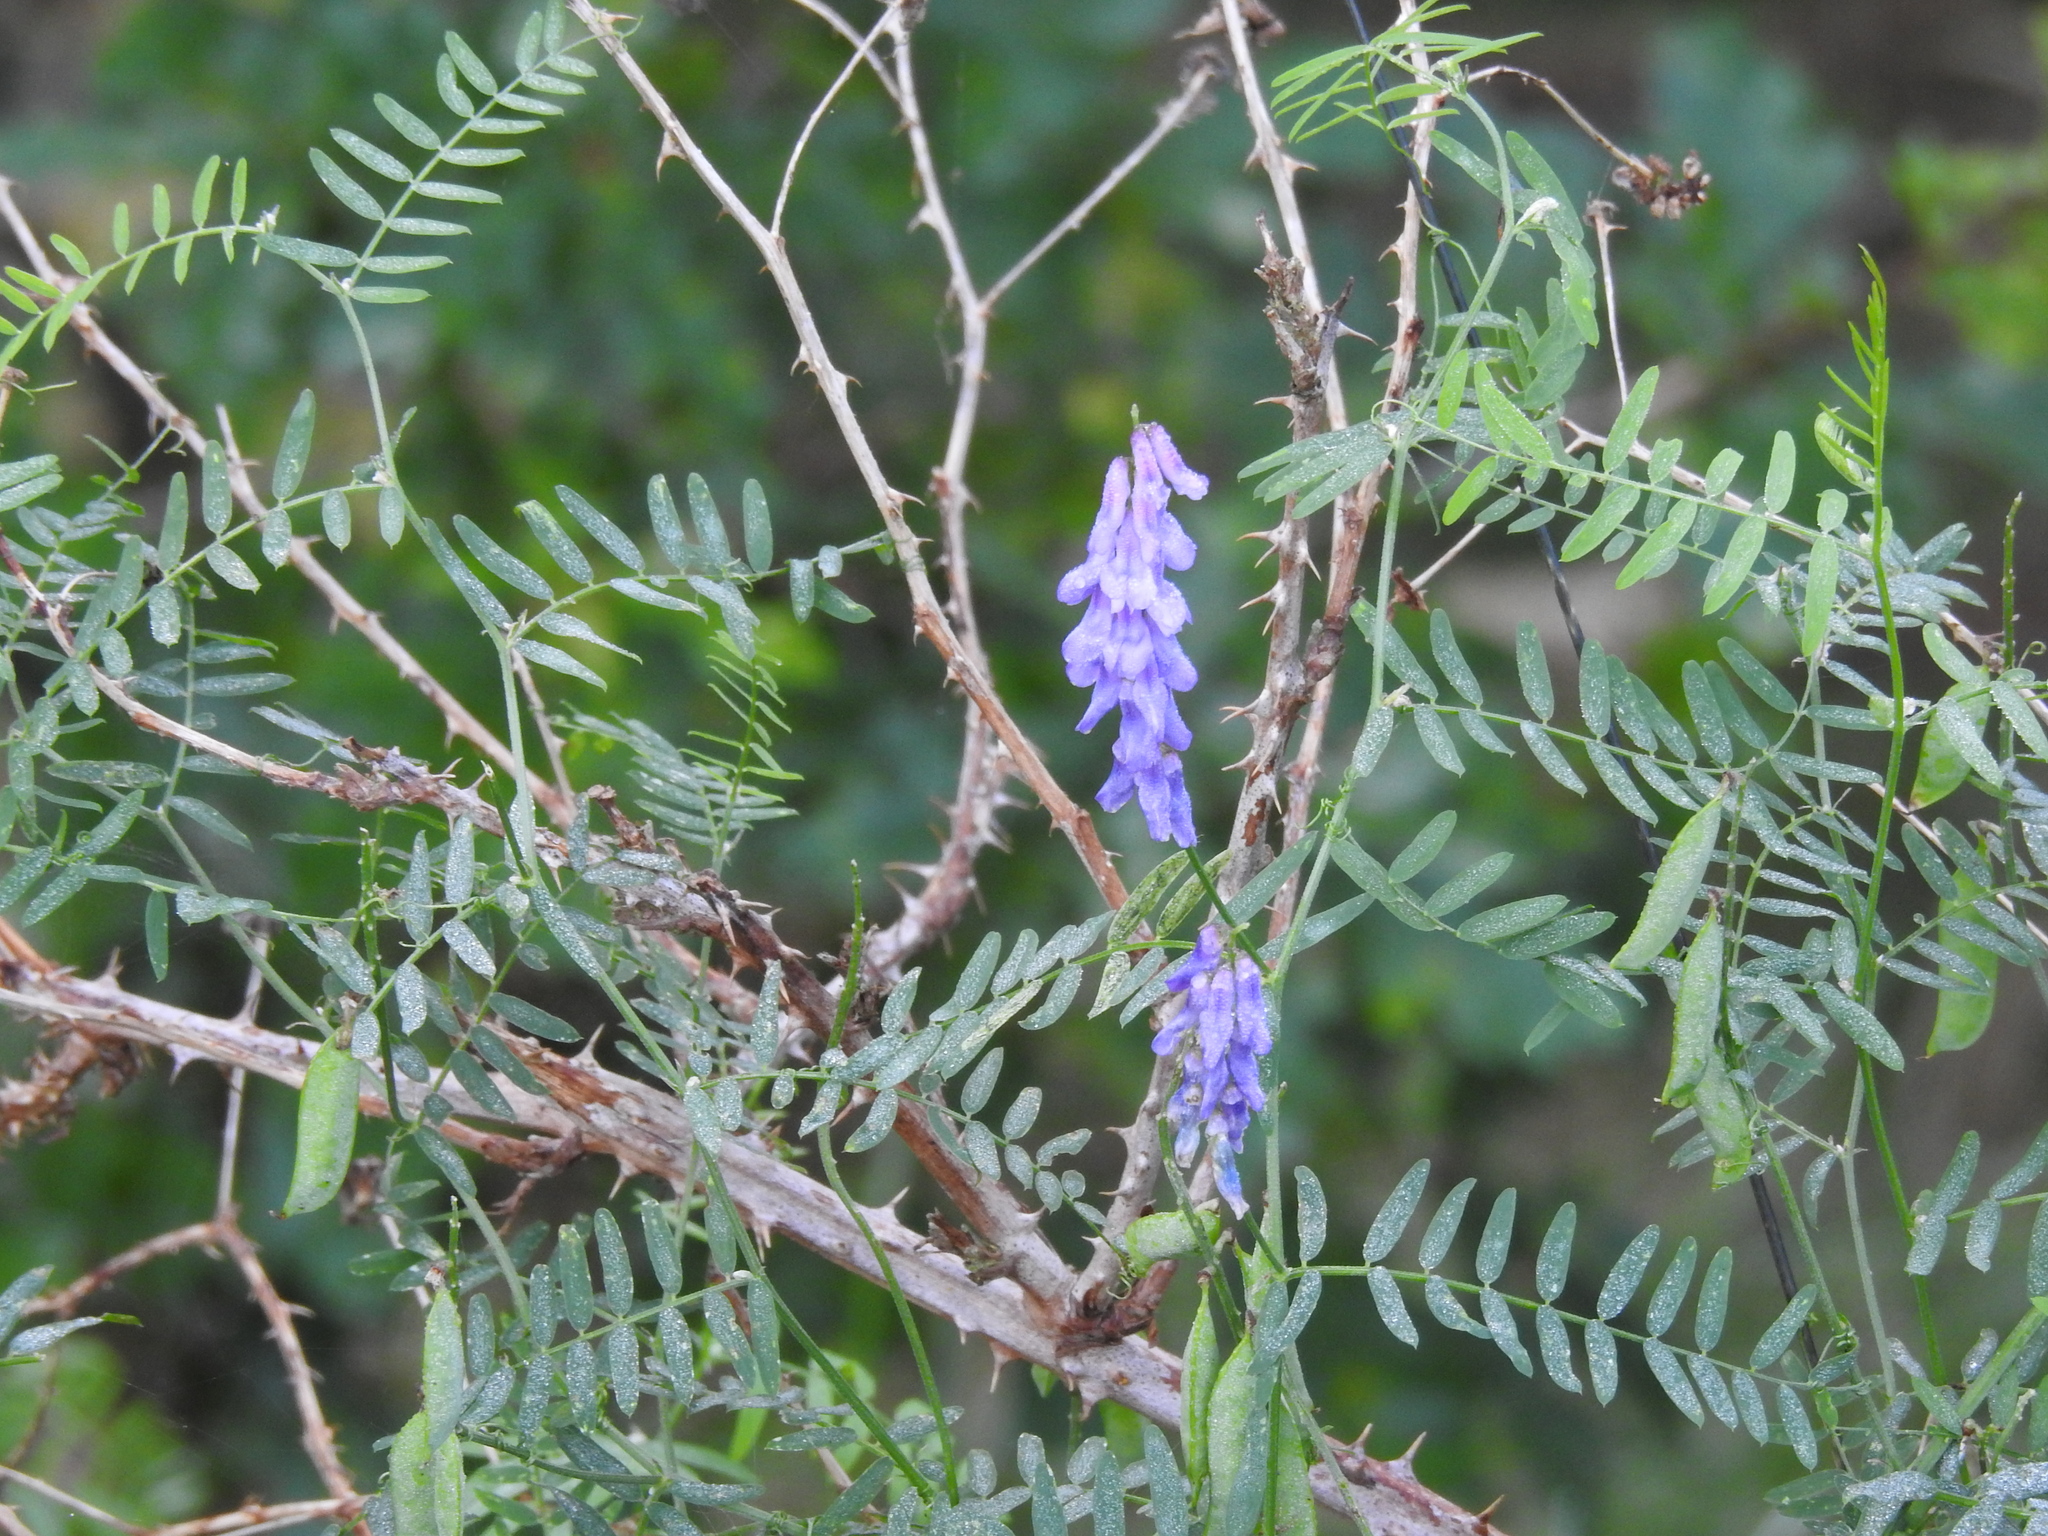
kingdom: Plantae
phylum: Tracheophyta
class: Magnoliopsida
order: Fabales
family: Fabaceae
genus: Vicia
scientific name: Vicia cracca
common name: Bird vetch
